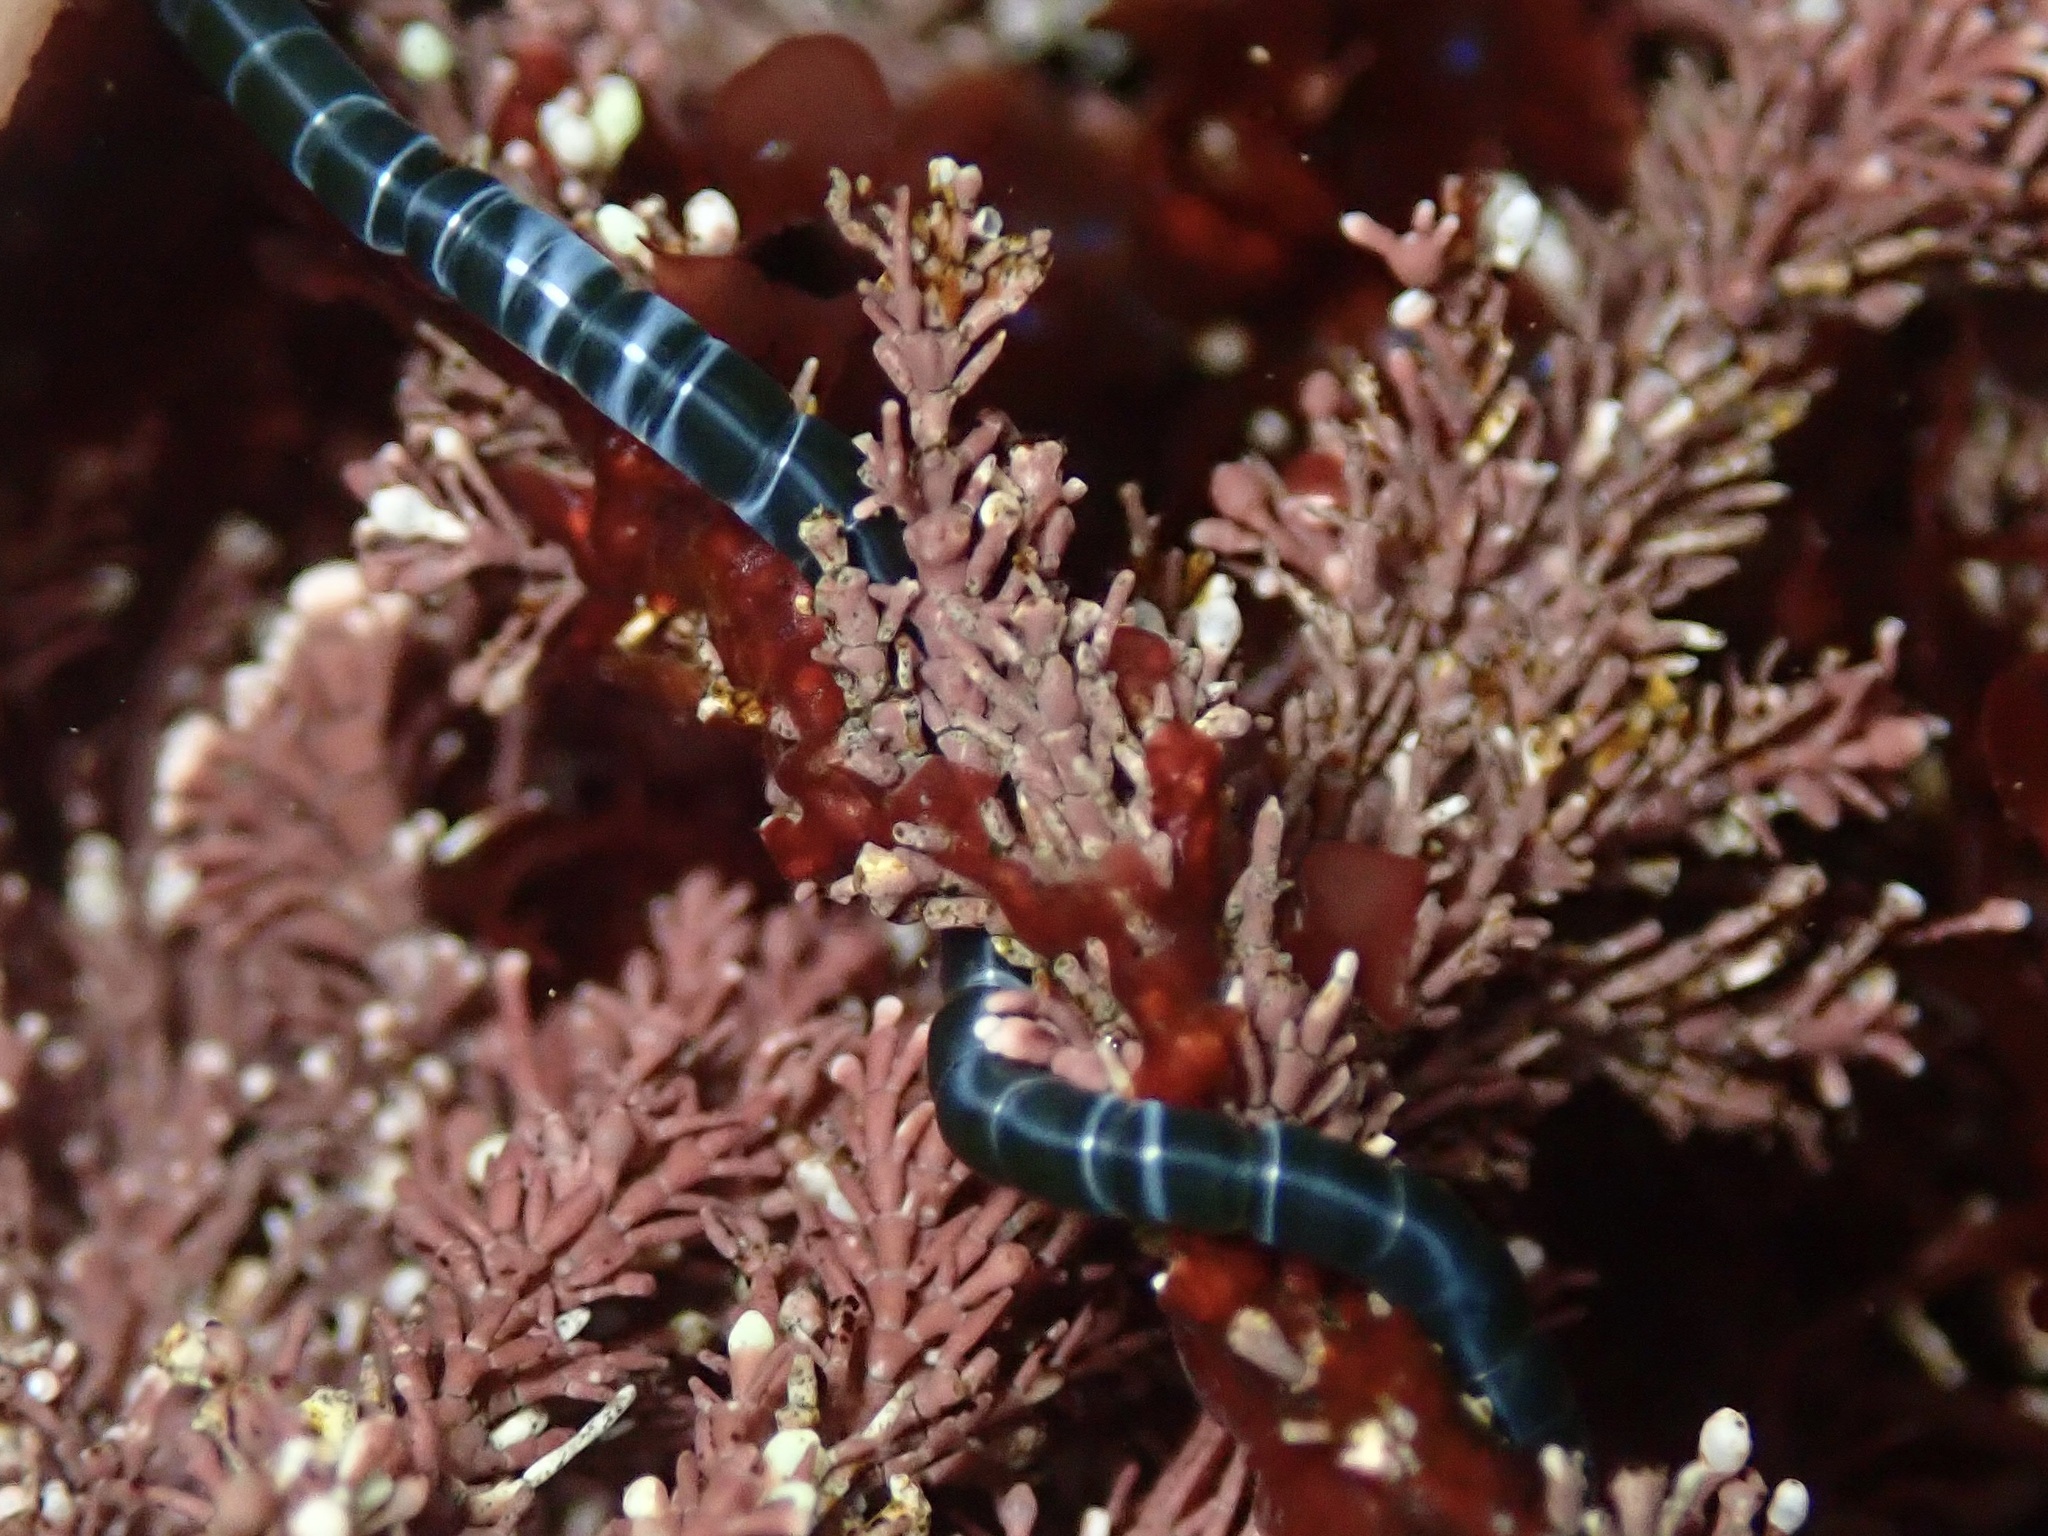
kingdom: Plantae
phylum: Chlorophyta
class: Ulvophyceae
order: Cladophorales
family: Cladophoraceae
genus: Chaetomorpha
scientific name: Chaetomorpha spiralis
